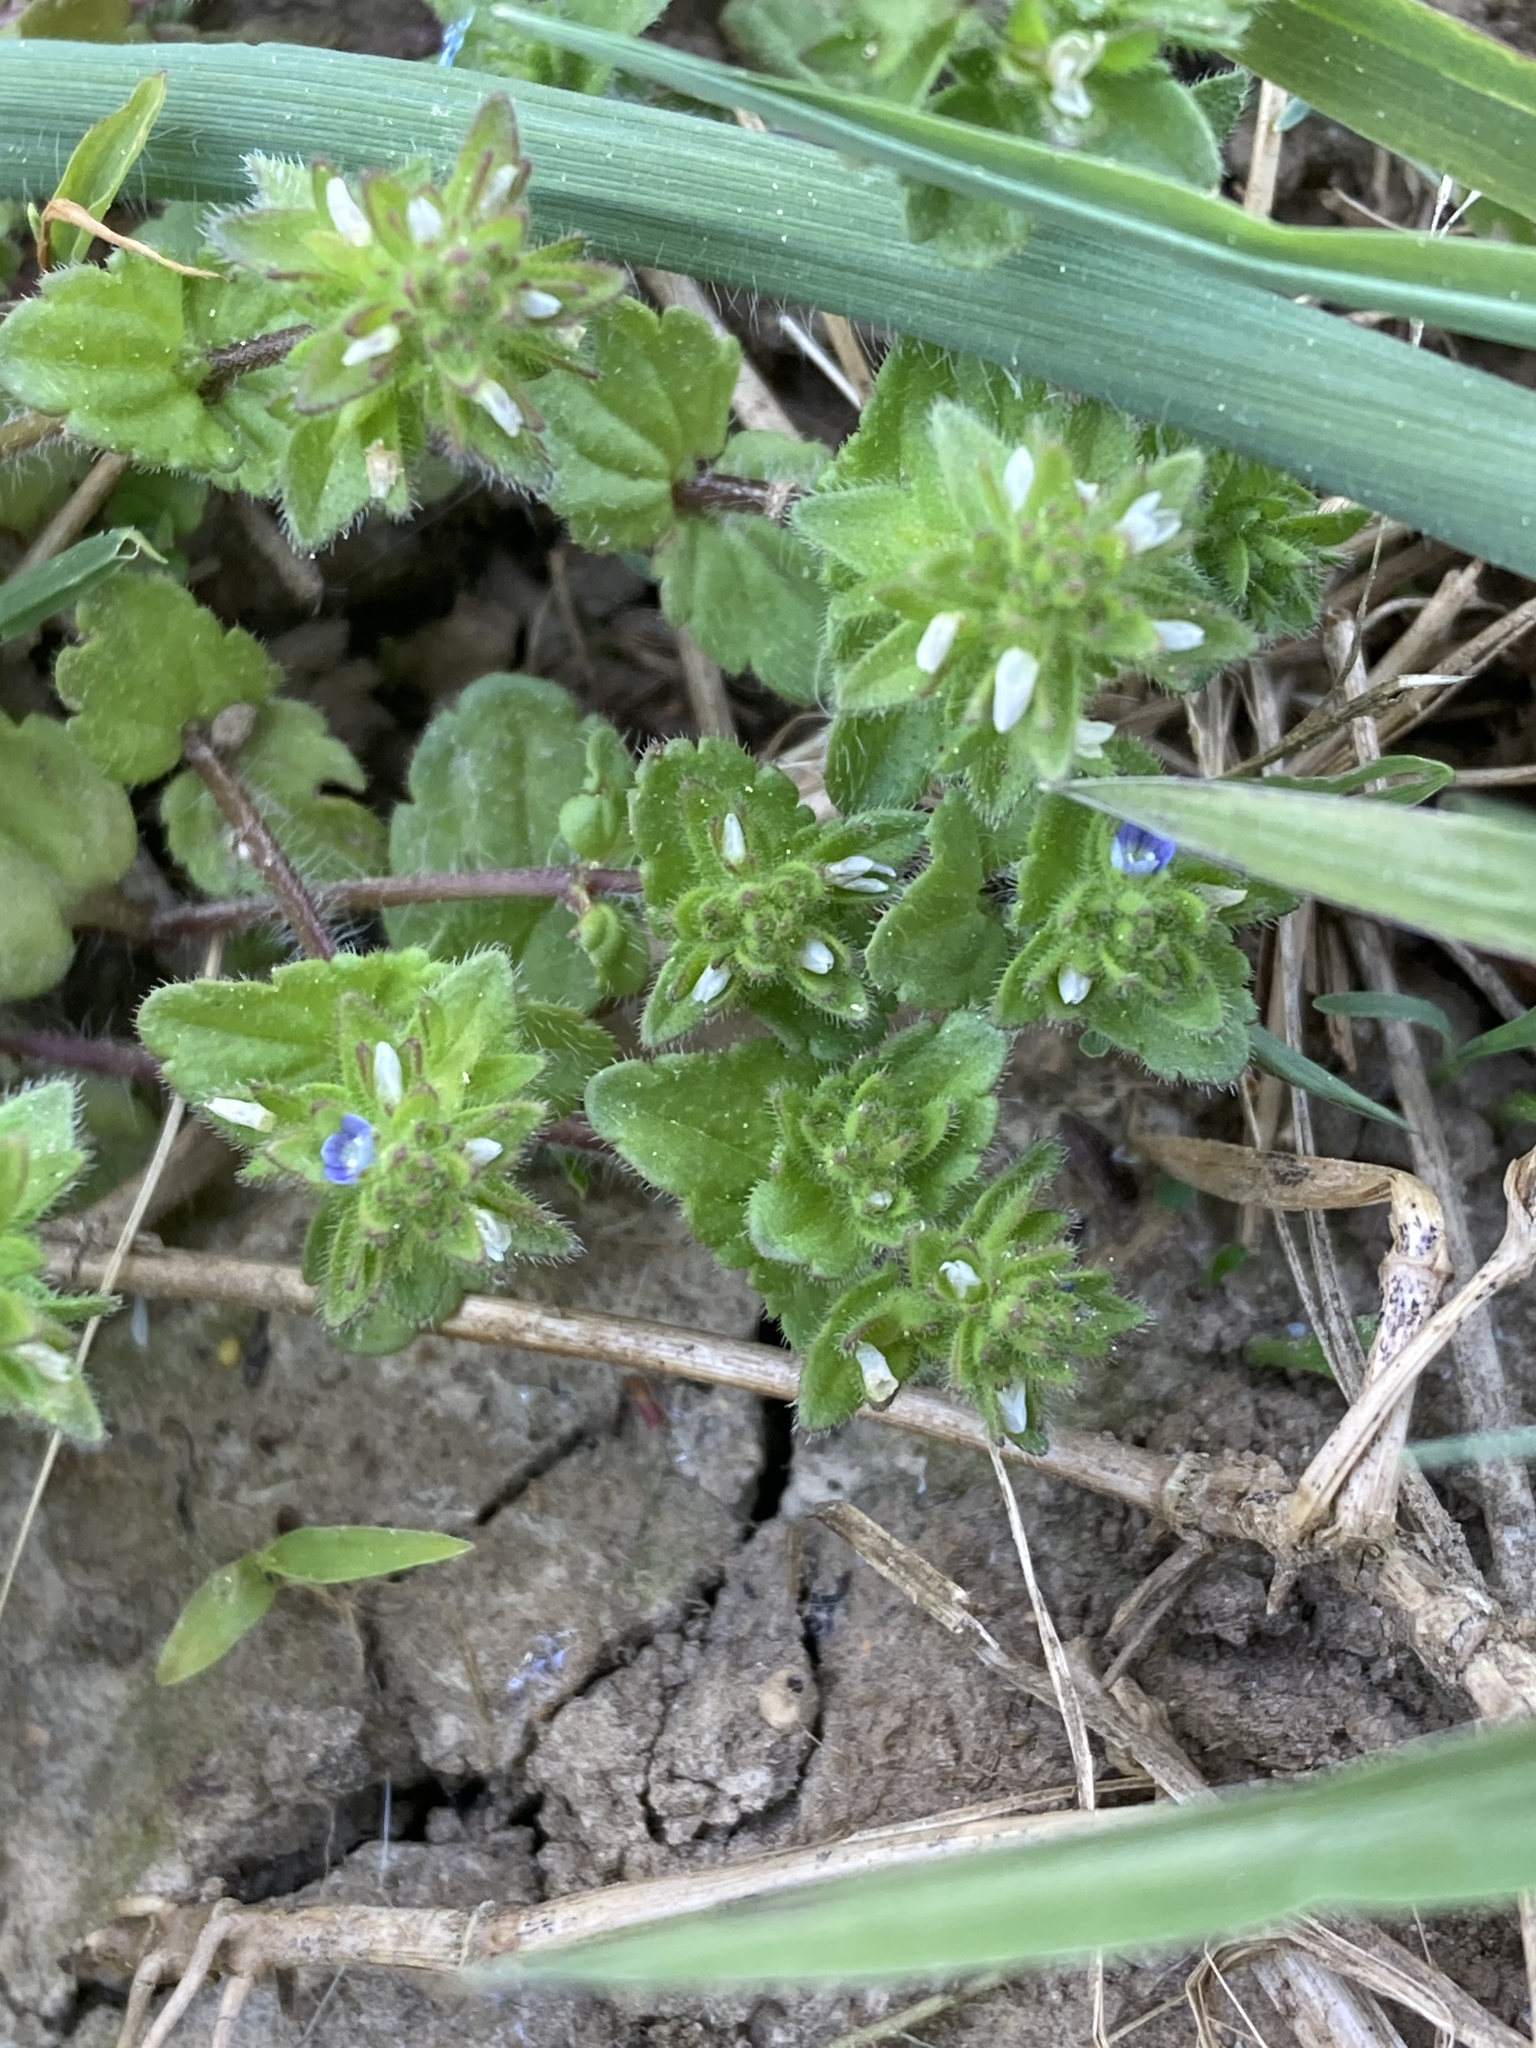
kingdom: Plantae
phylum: Tracheophyta
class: Magnoliopsida
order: Lamiales
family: Plantaginaceae
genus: Veronica
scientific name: Veronica arvensis
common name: Corn speedwell
